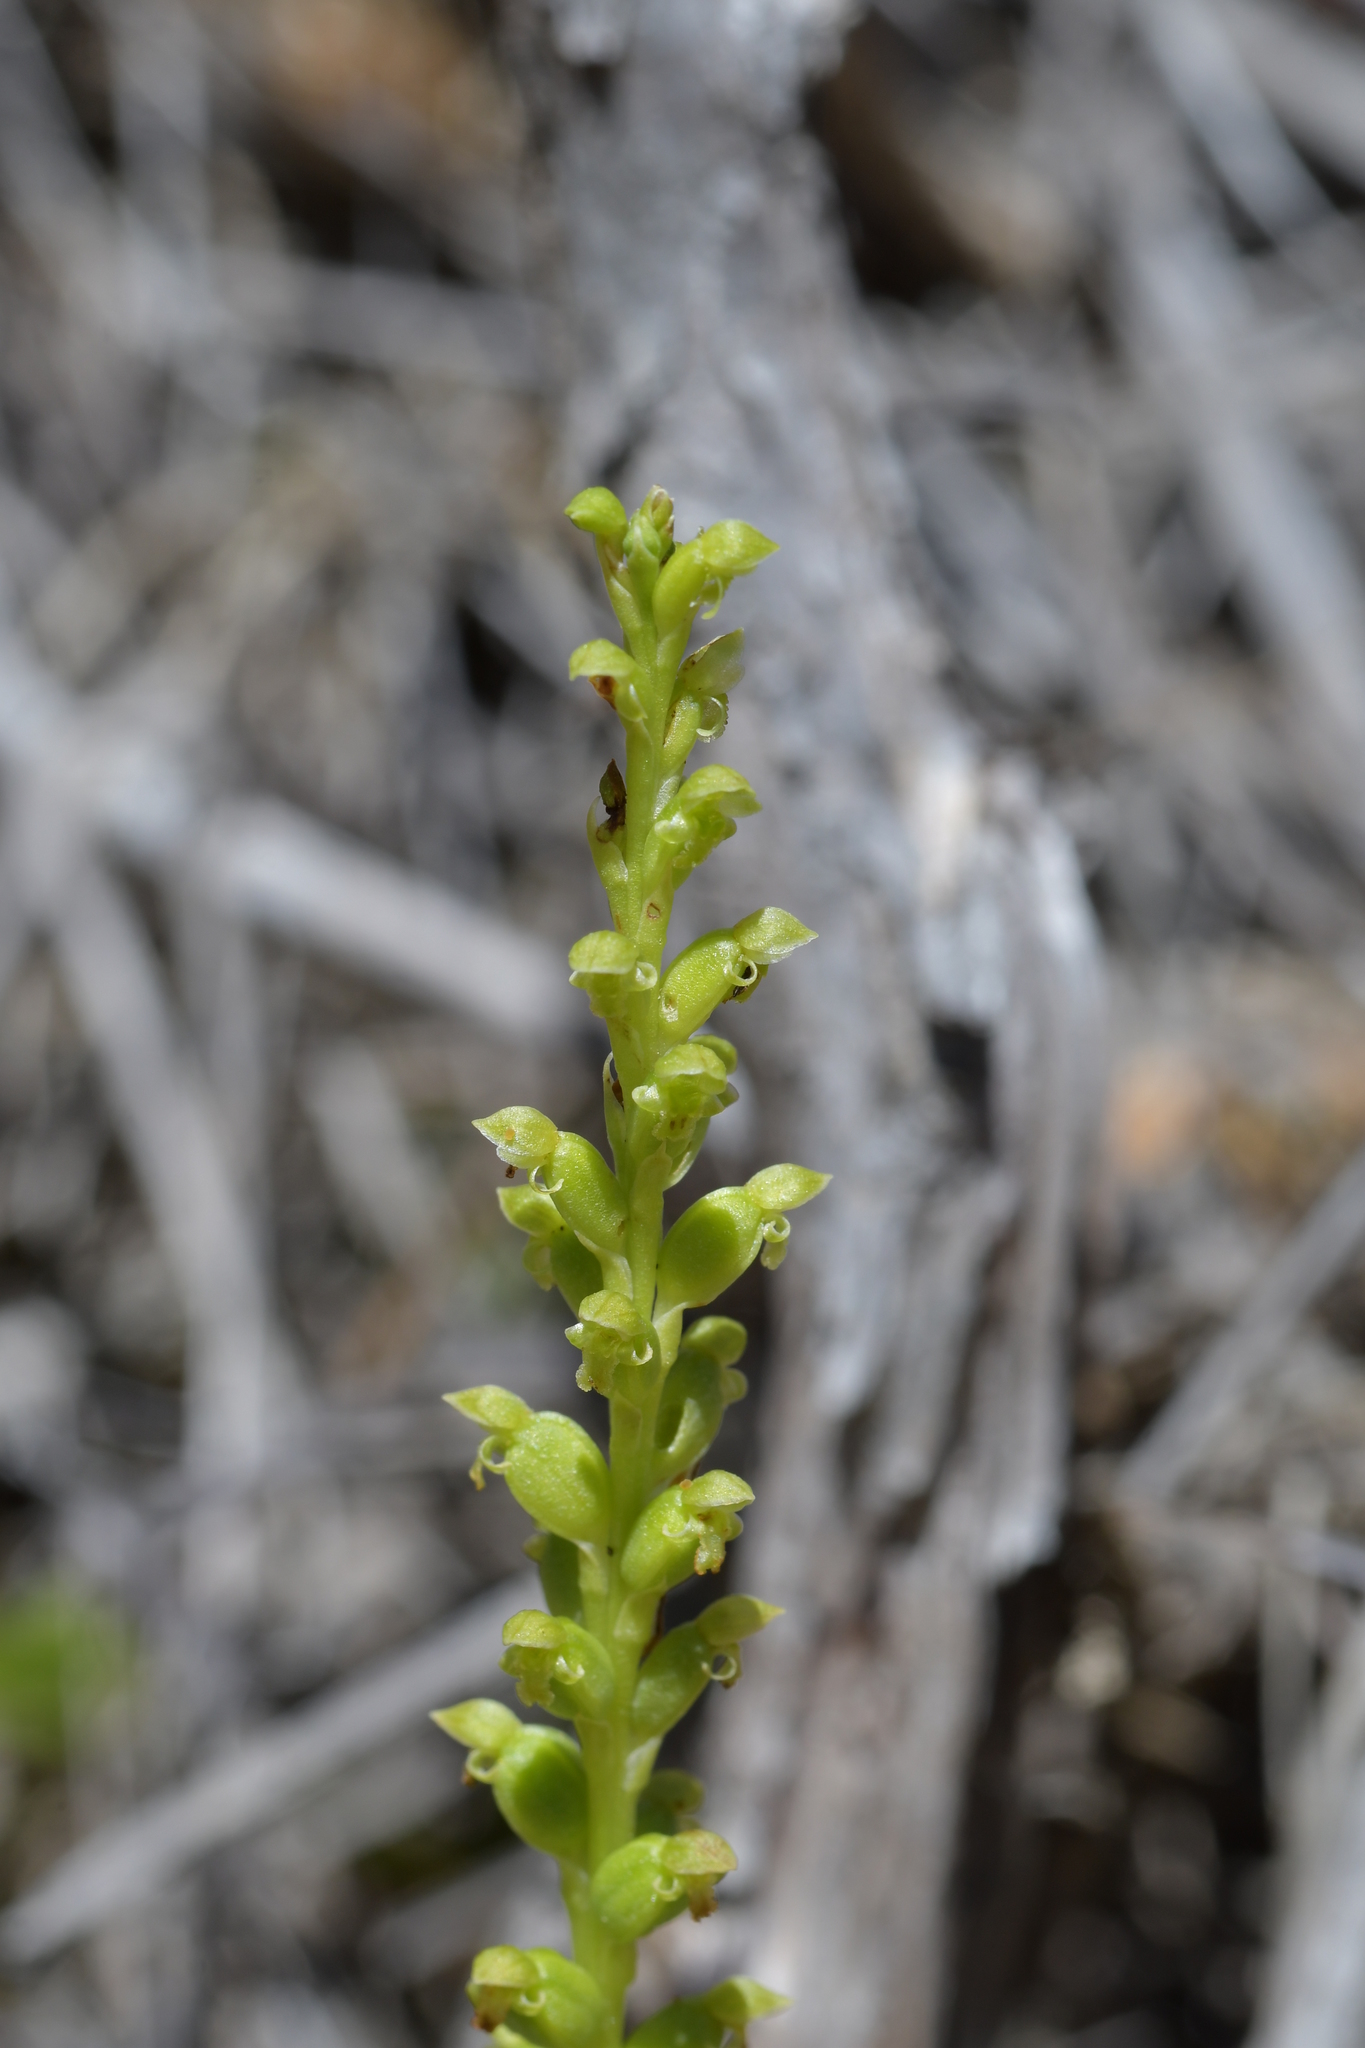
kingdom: Plantae
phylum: Tracheophyta
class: Liliopsida
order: Asparagales
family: Orchidaceae
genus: Microtis
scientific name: Microtis unifolia
